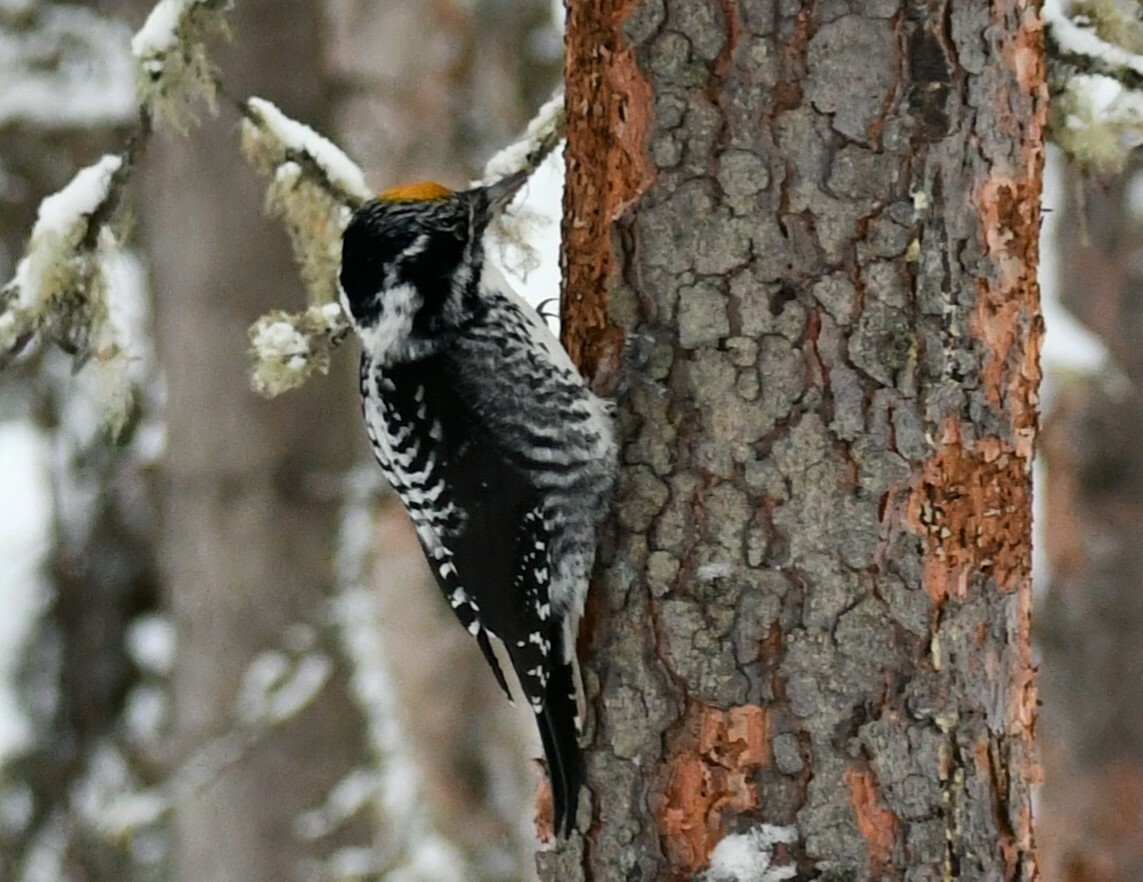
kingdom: Animalia
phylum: Chordata
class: Aves
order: Piciformes
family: Picidae
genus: Picoides
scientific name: Picoides dorsalis
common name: American three-toed woodpecker
